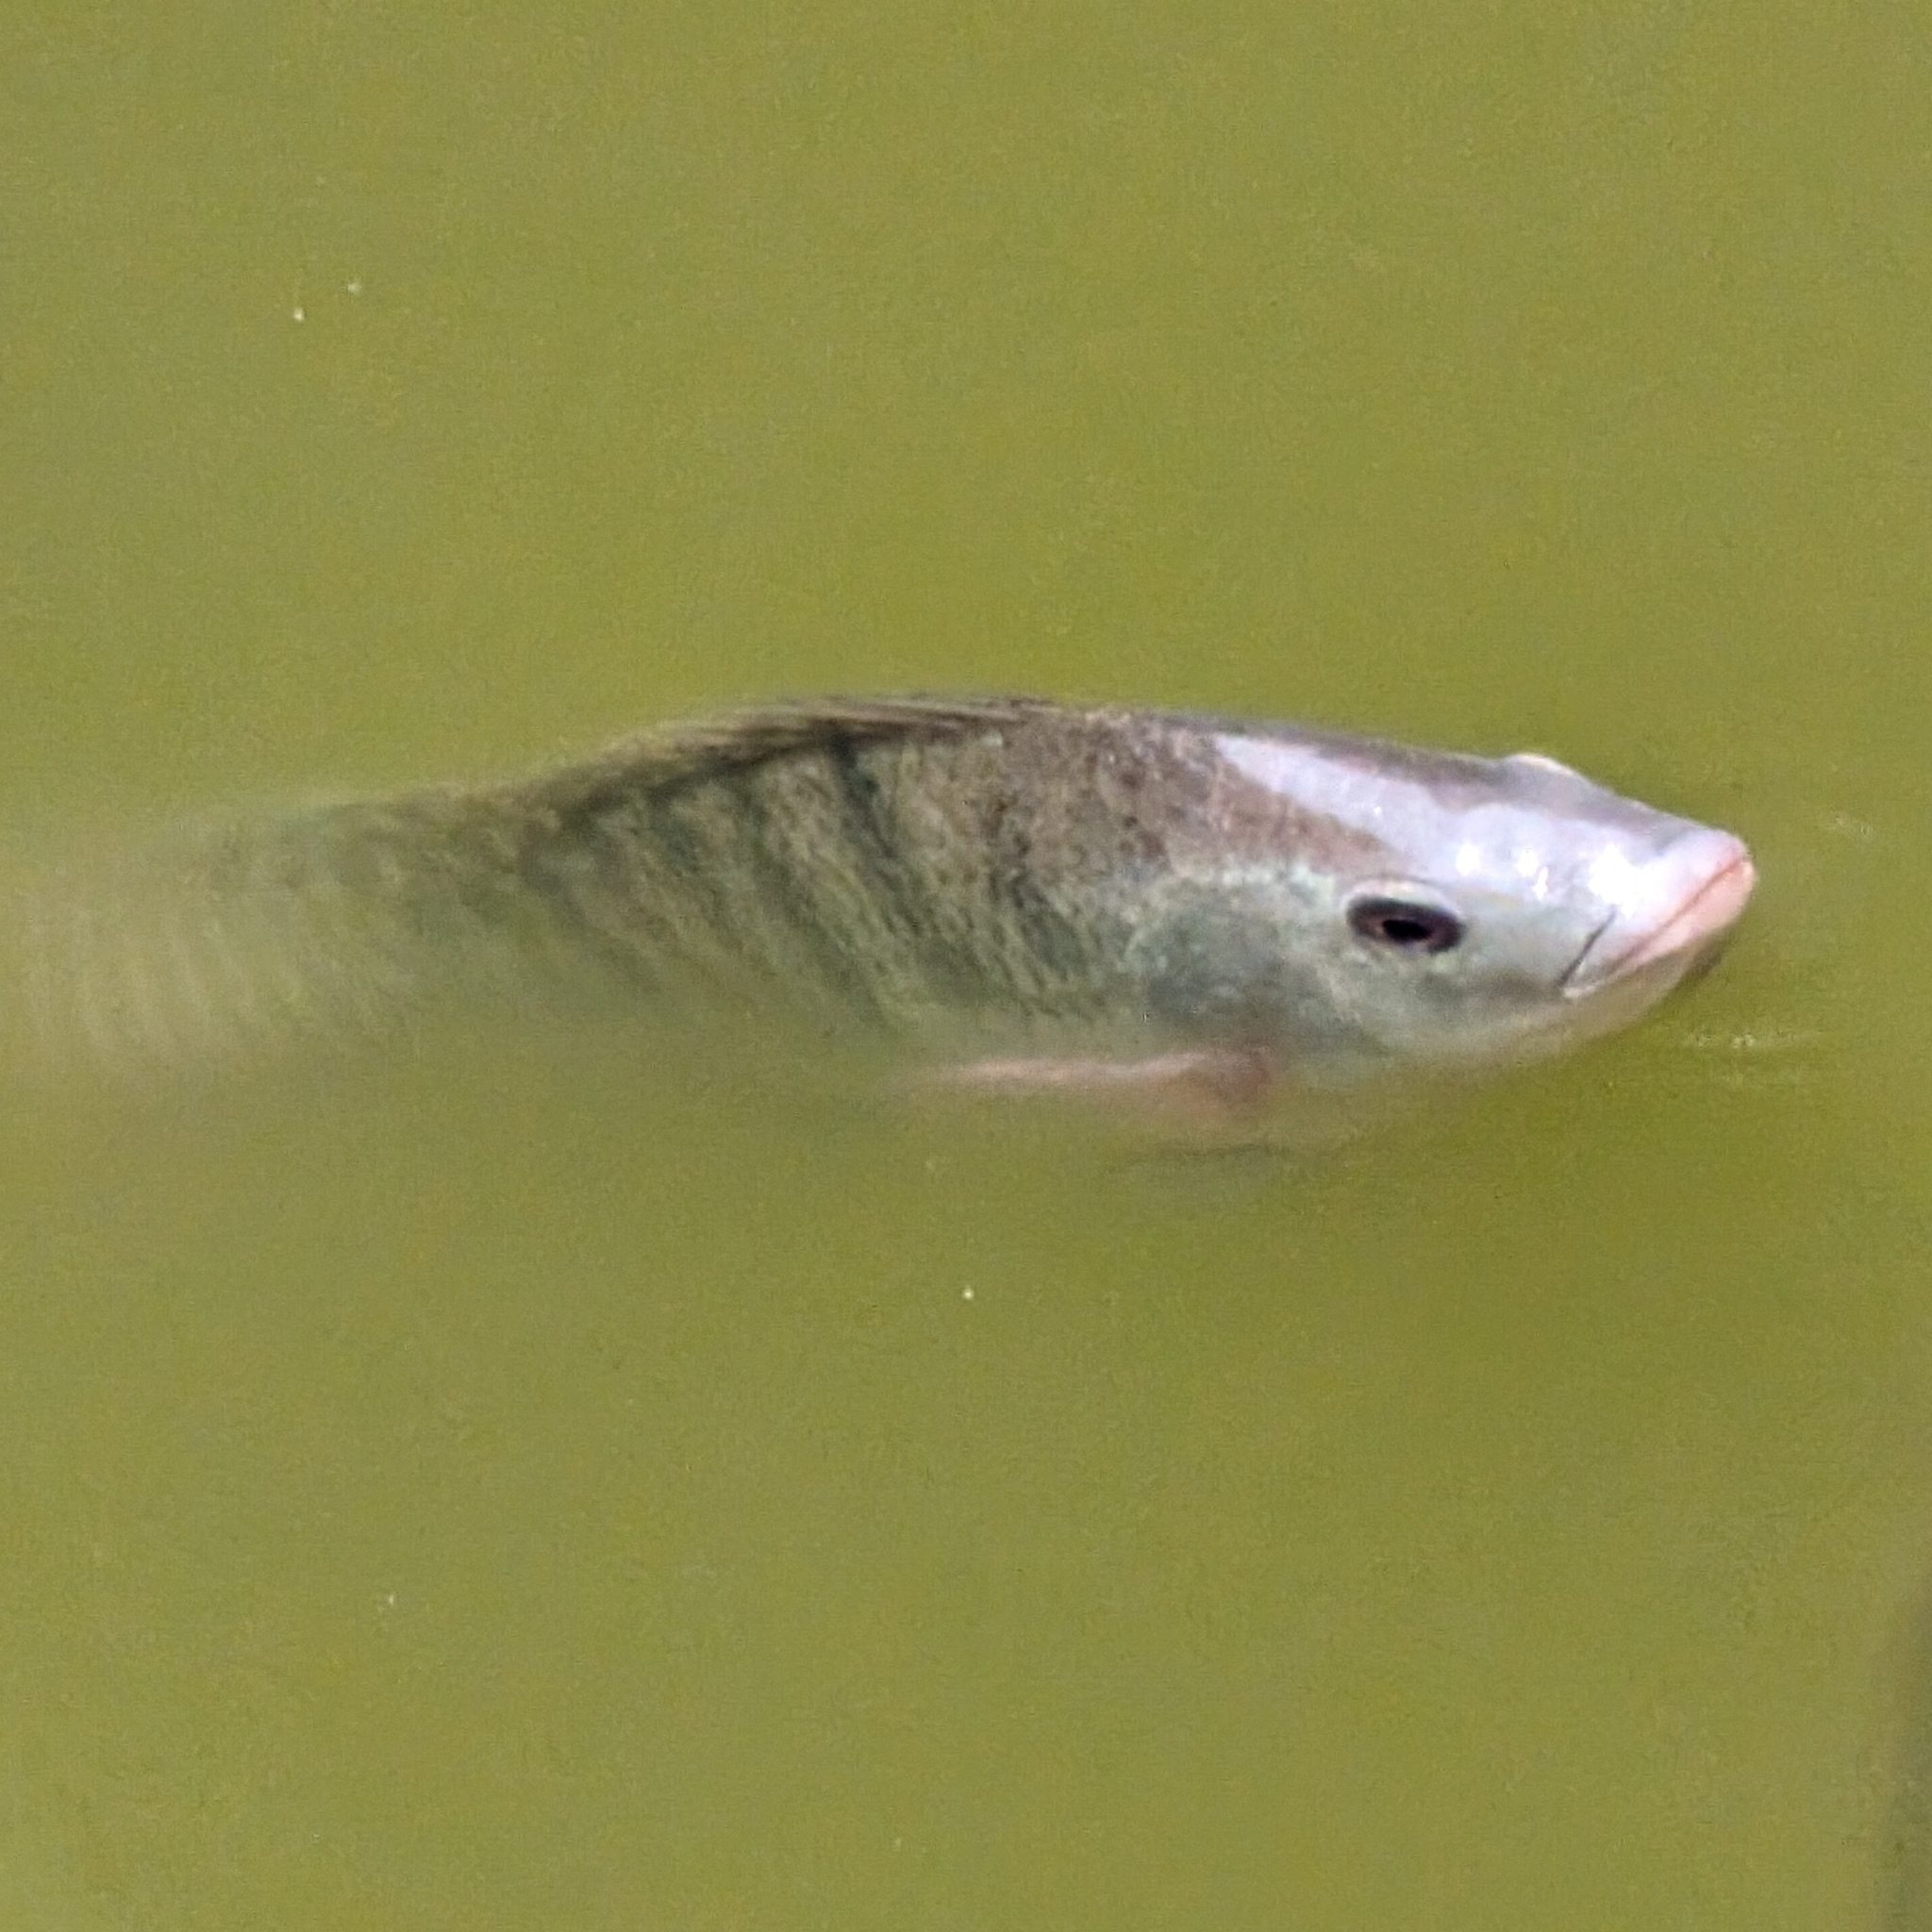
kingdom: Animalia
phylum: Chordata
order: Perciformes
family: Cichlidae
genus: Oreochromis
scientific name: Oreochromis niloticus
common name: Nile tilapia
